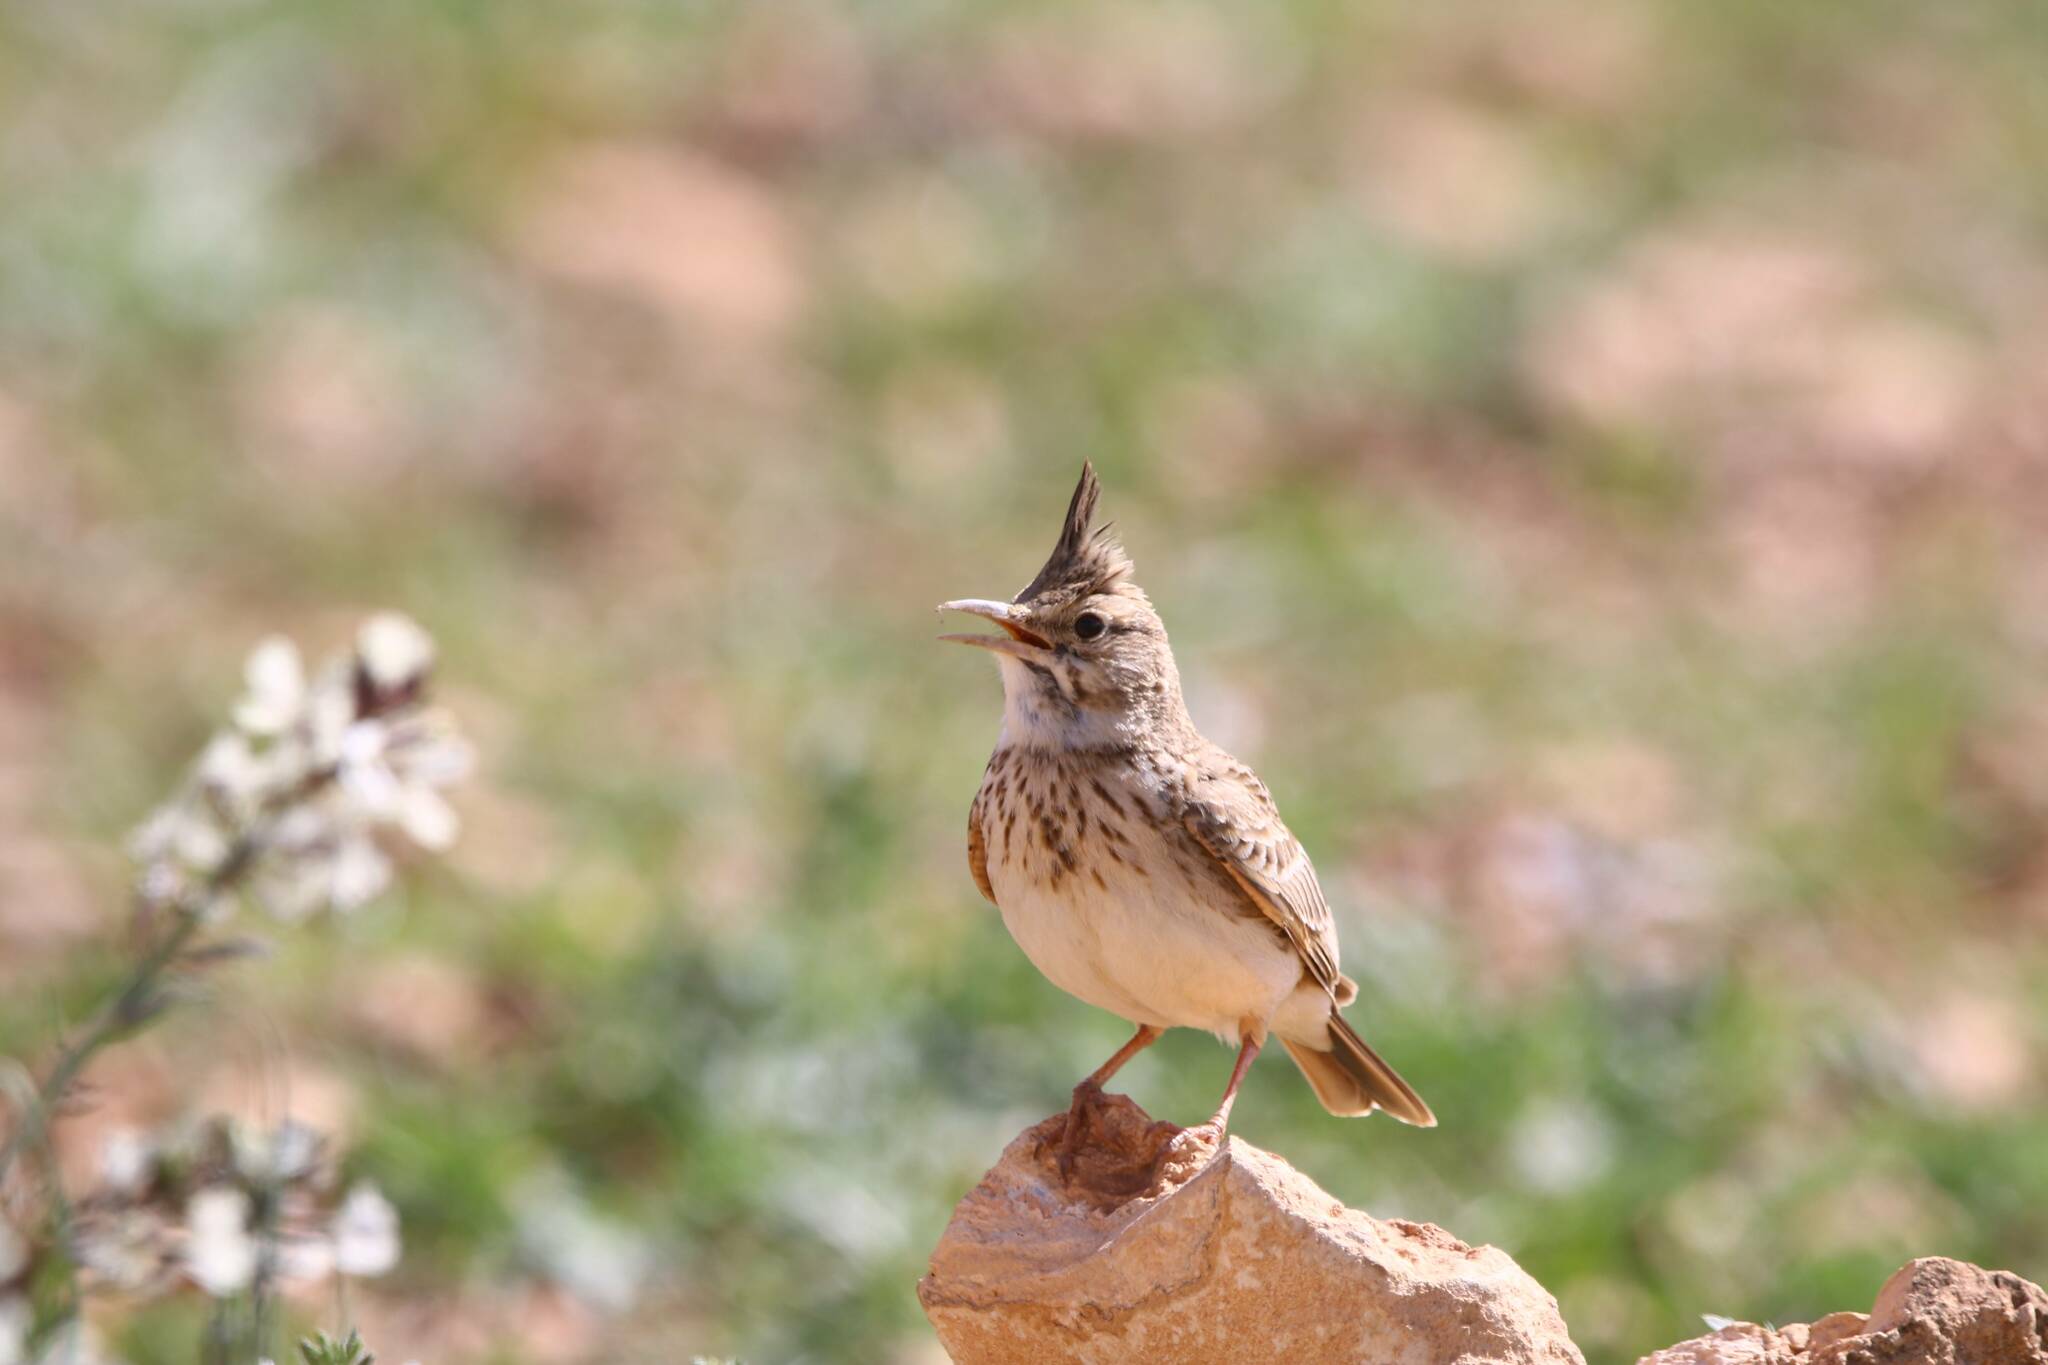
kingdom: Animalia
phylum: Chordata
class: Aves
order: Passeriformes
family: Alaudidae
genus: Galerida
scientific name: Galerida cristata
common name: Crested lark
